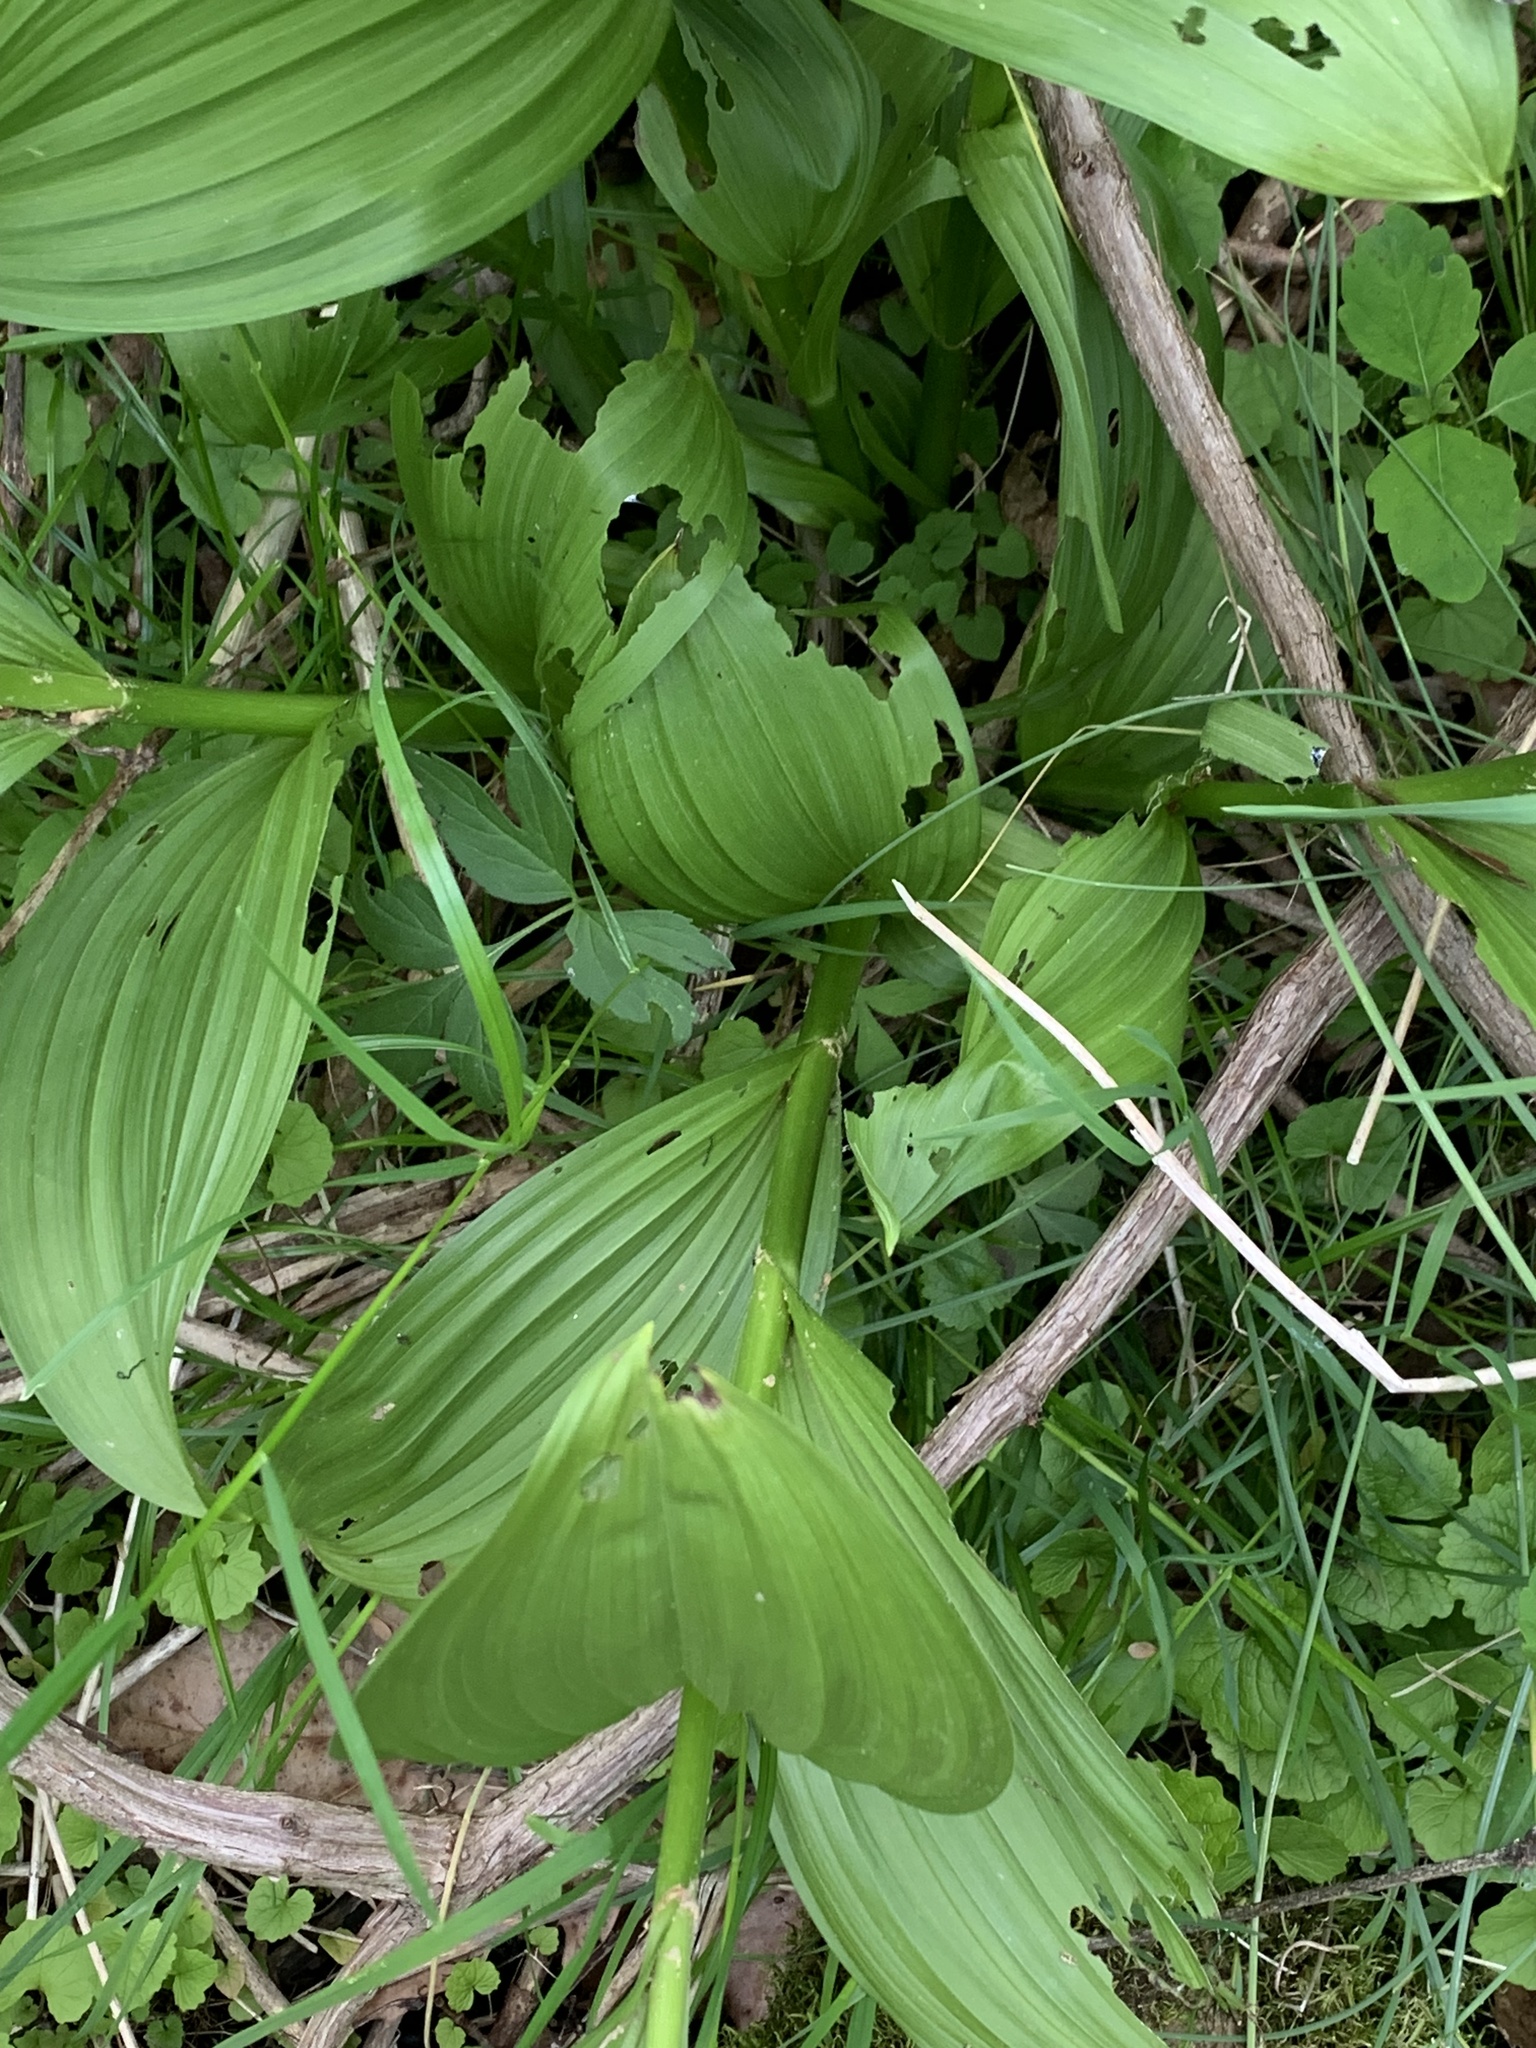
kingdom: Plantae
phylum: Tracheophyta
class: Liliopsida
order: Liliales
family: Melanthiaceae
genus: Veratrum
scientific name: Veratrum viride
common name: American false hellebore
